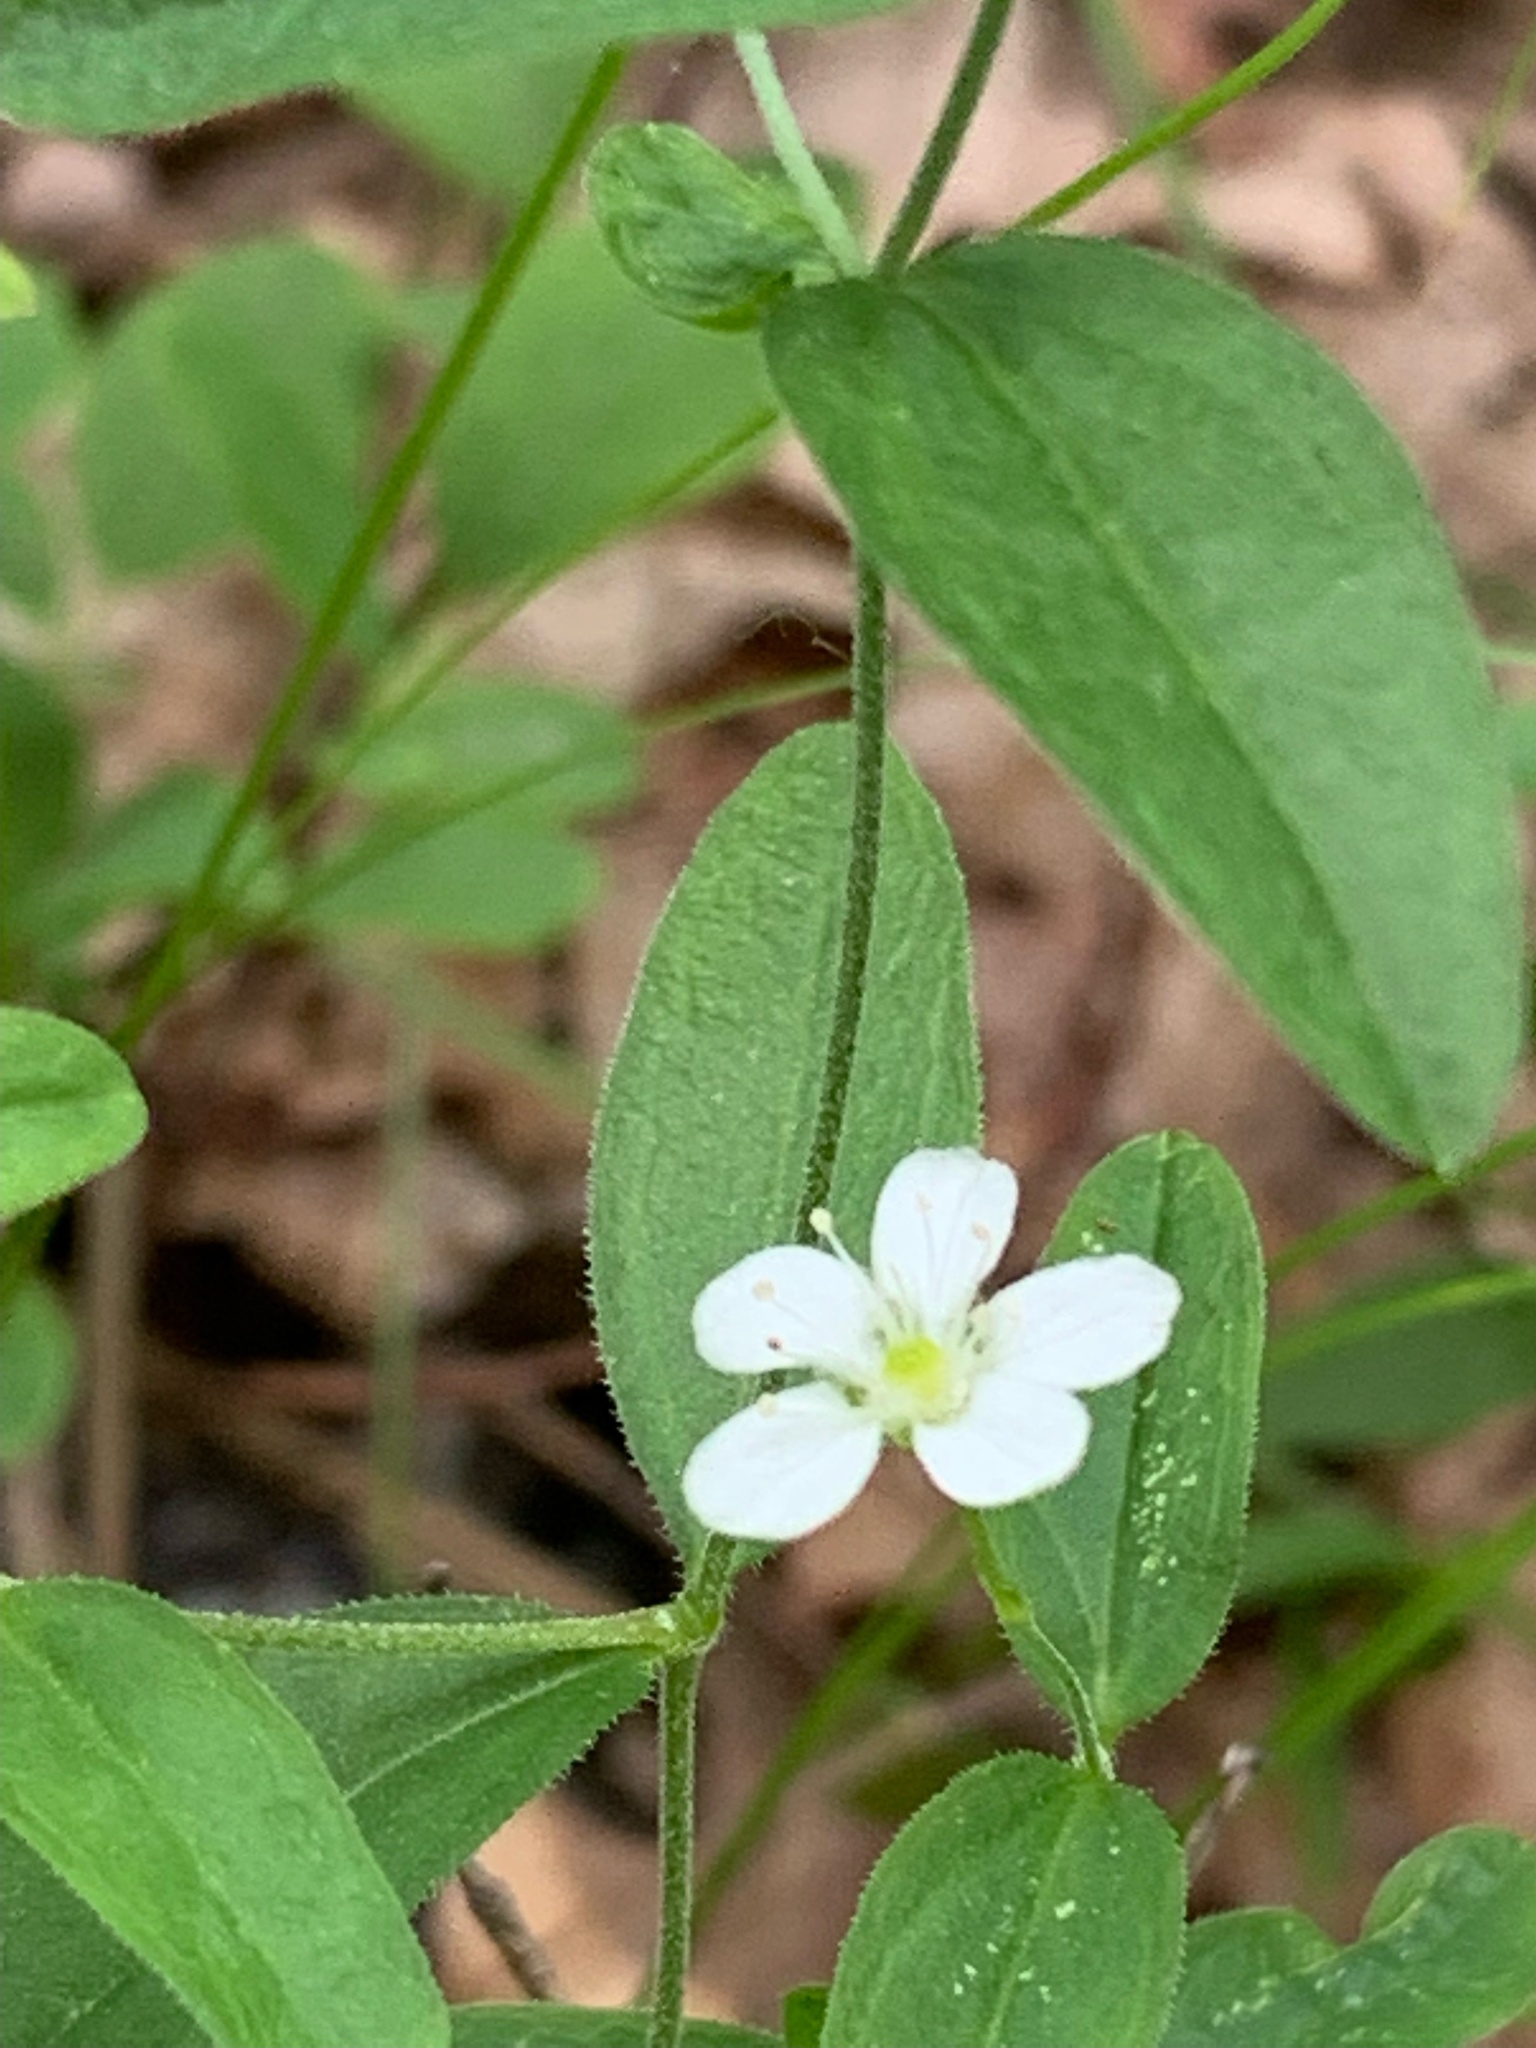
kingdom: Plantae
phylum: Tracheophyta
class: Magnoliopsida
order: Caryophyllales
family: Caryophyllaceae
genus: Moehringia
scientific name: Moehringia lateriflora
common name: Blunt-leaved sandwort
